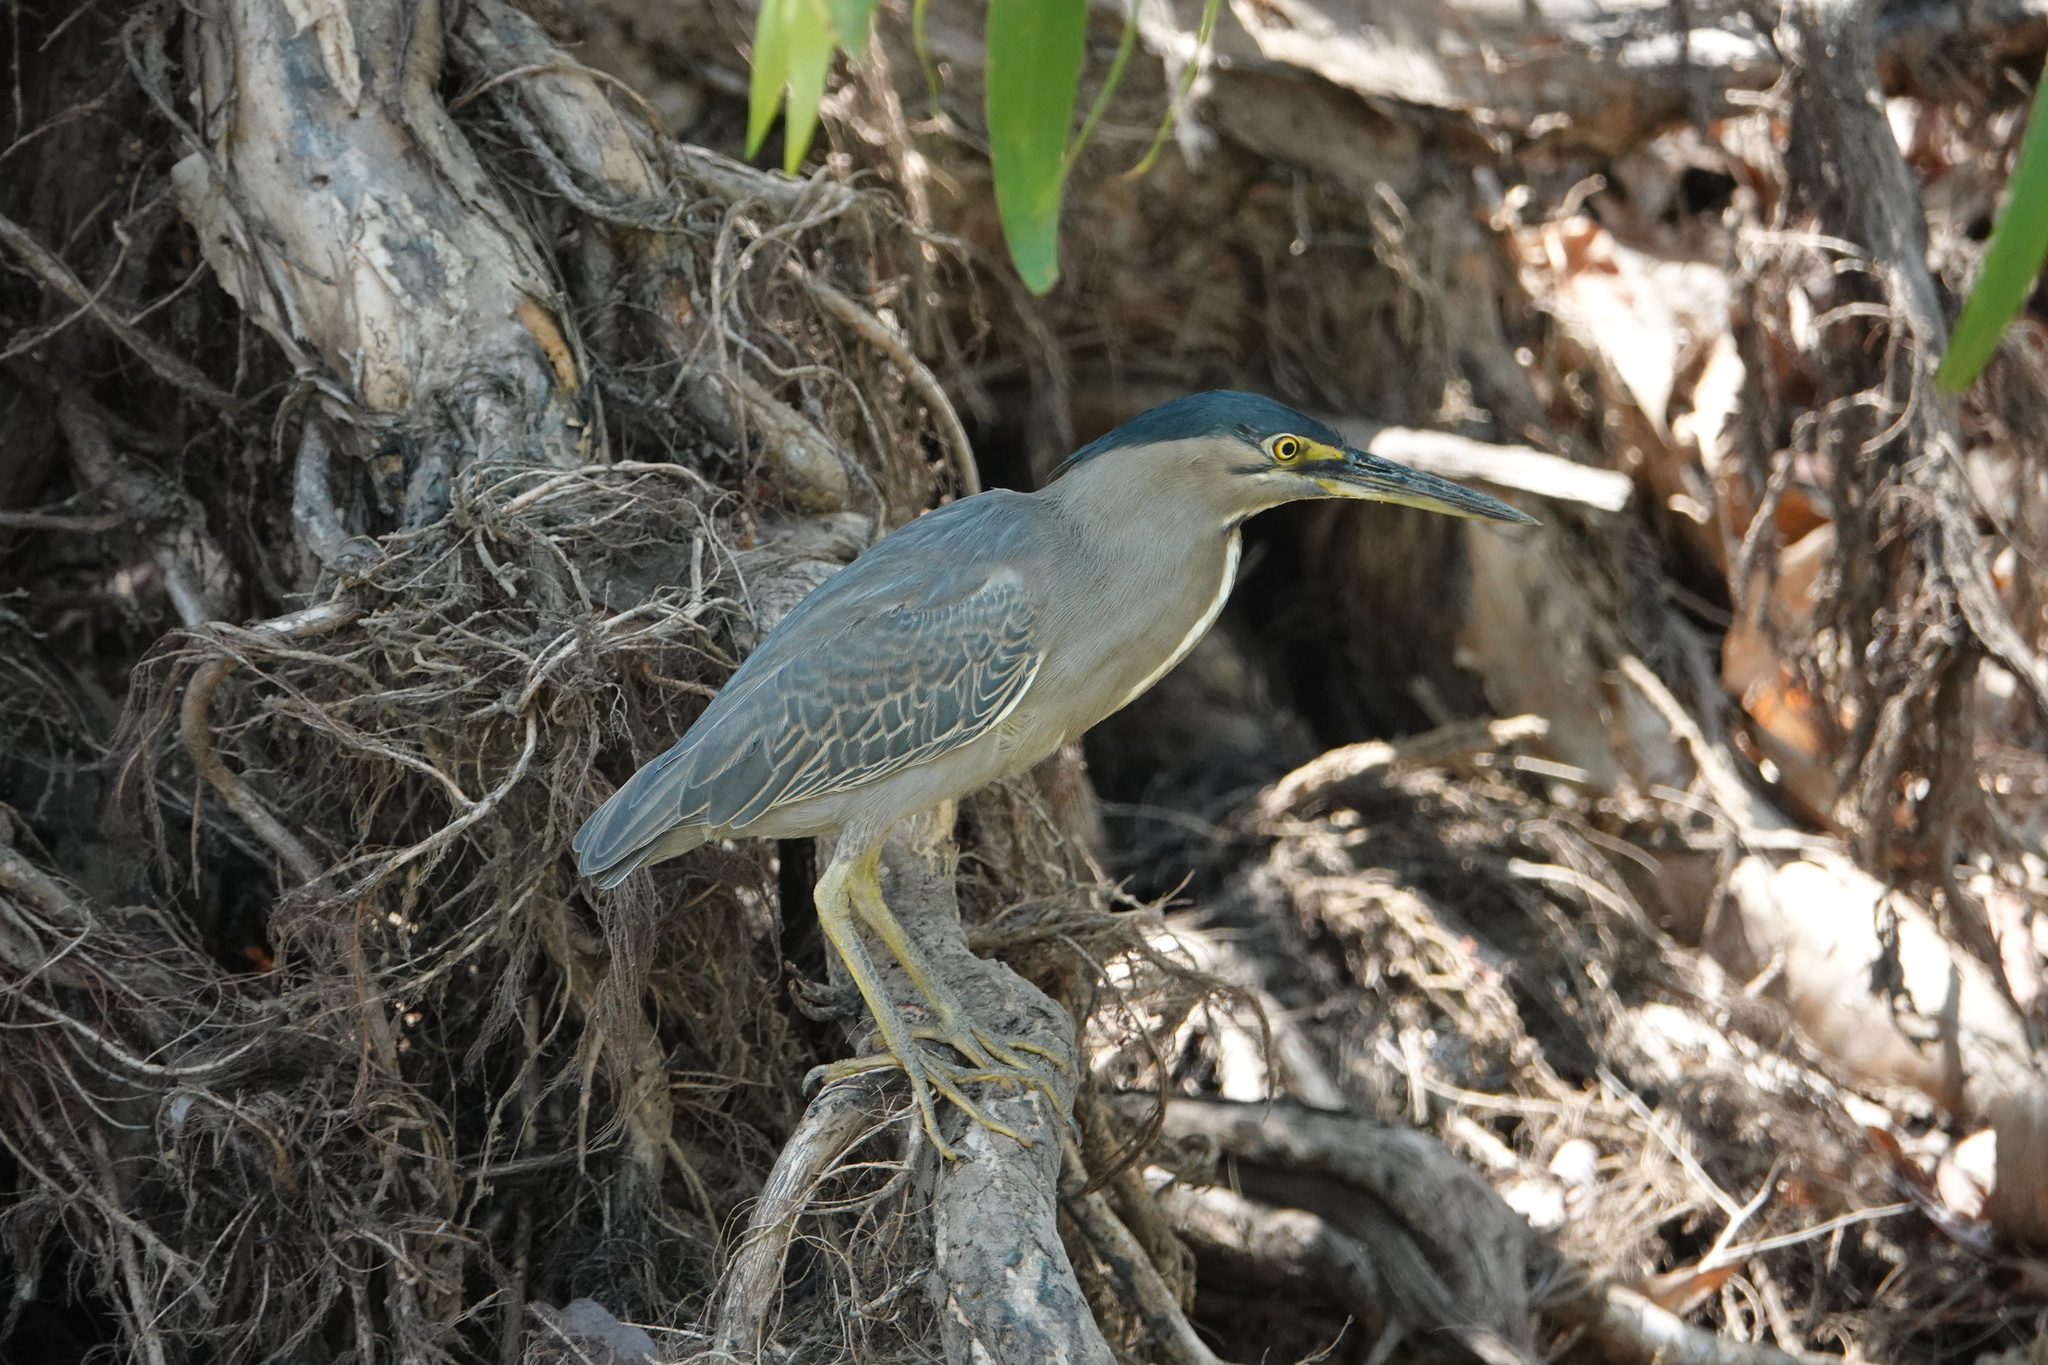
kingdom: Animalia
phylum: Chordata
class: Aves
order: Pelecaniformes
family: Ardeidae
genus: Butorides
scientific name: Butorides striata
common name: Striated heron
